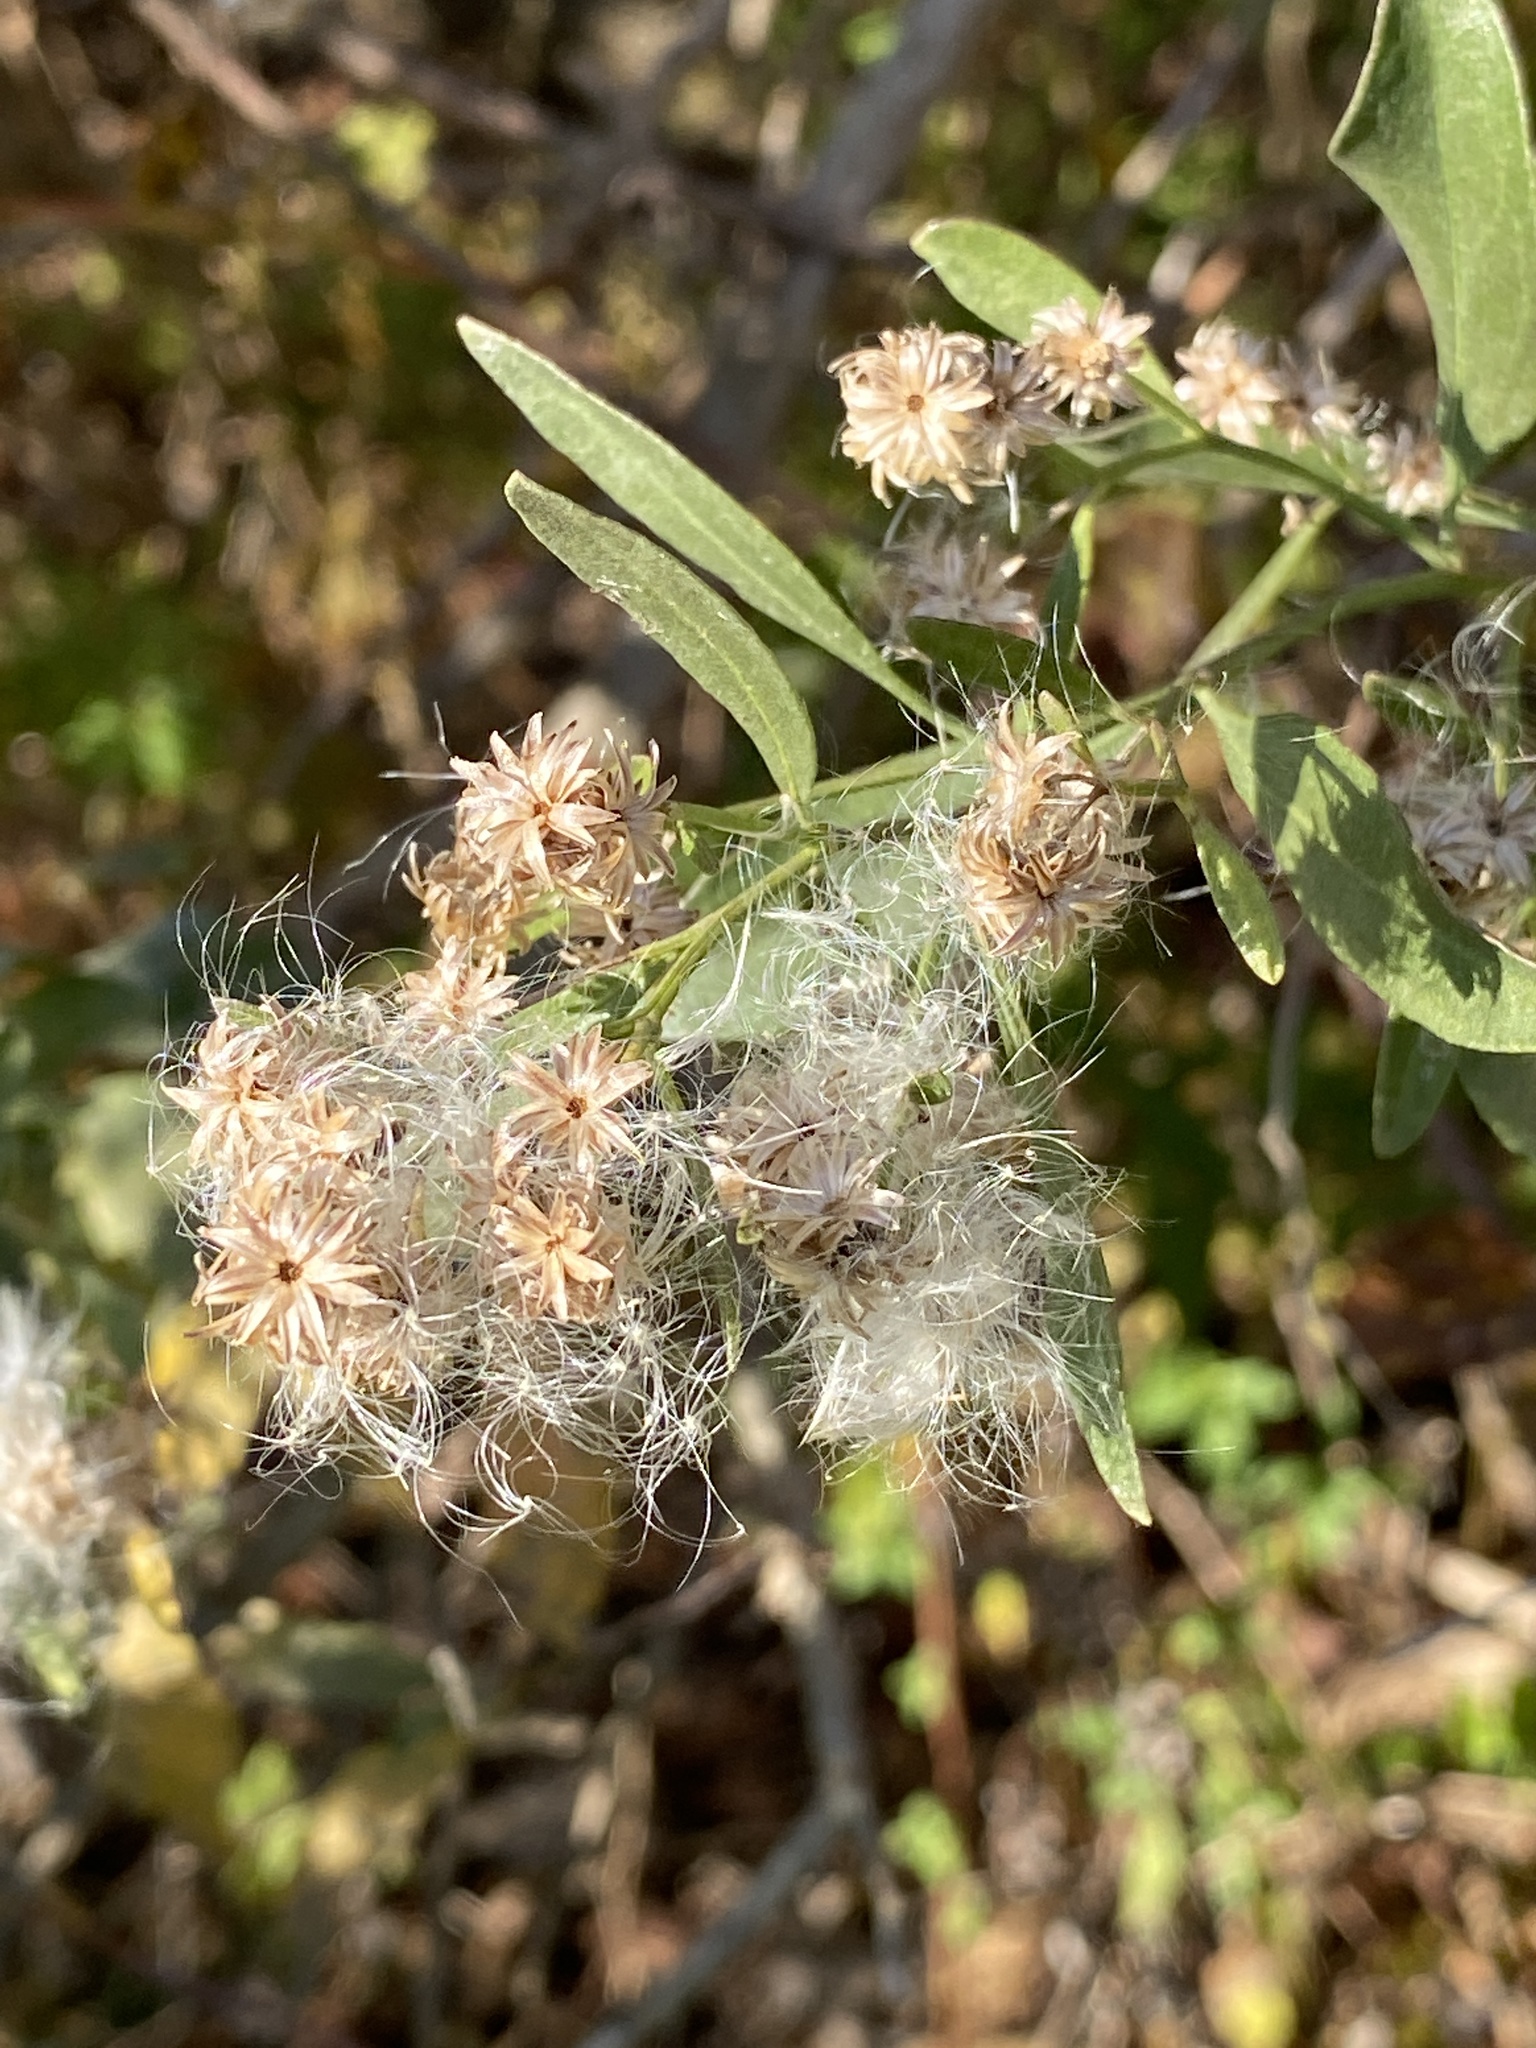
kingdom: Plantae
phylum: Tracheophyta
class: Magnoliopsida
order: Asterales
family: Asteraceae
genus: Baccharis
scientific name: Baccharis halimifolia
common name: Eastern baccharis
